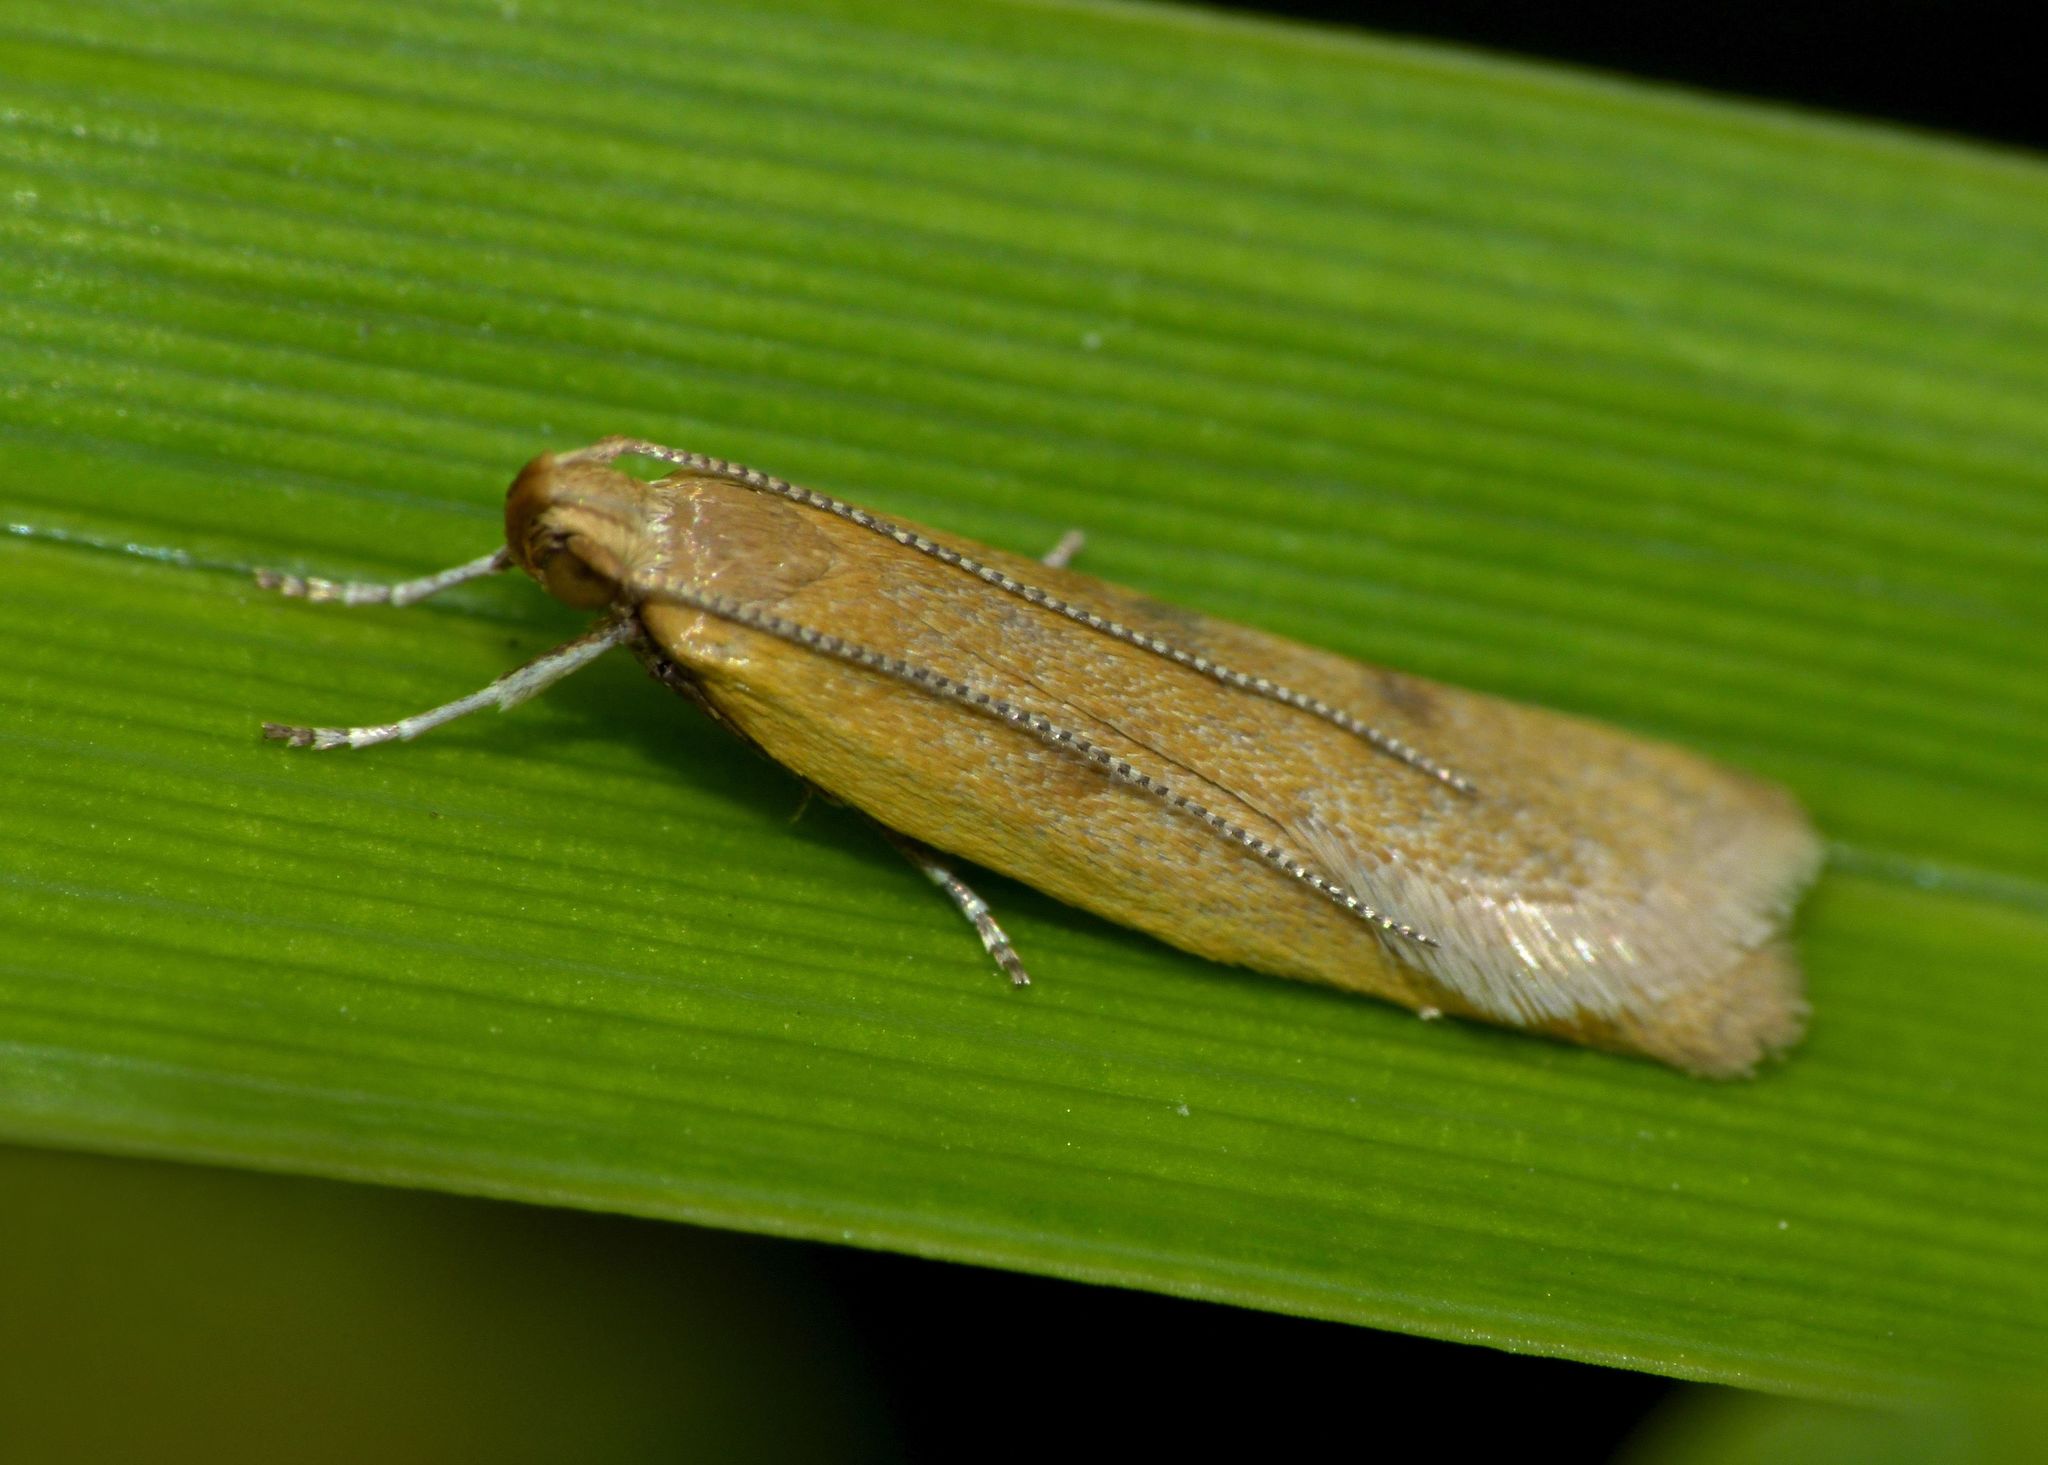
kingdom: Animalia
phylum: Arthropoda
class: Insecta
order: Lepidoptera
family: Oecophoridae
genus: Gymnobathra
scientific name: Gymnobathra parca
